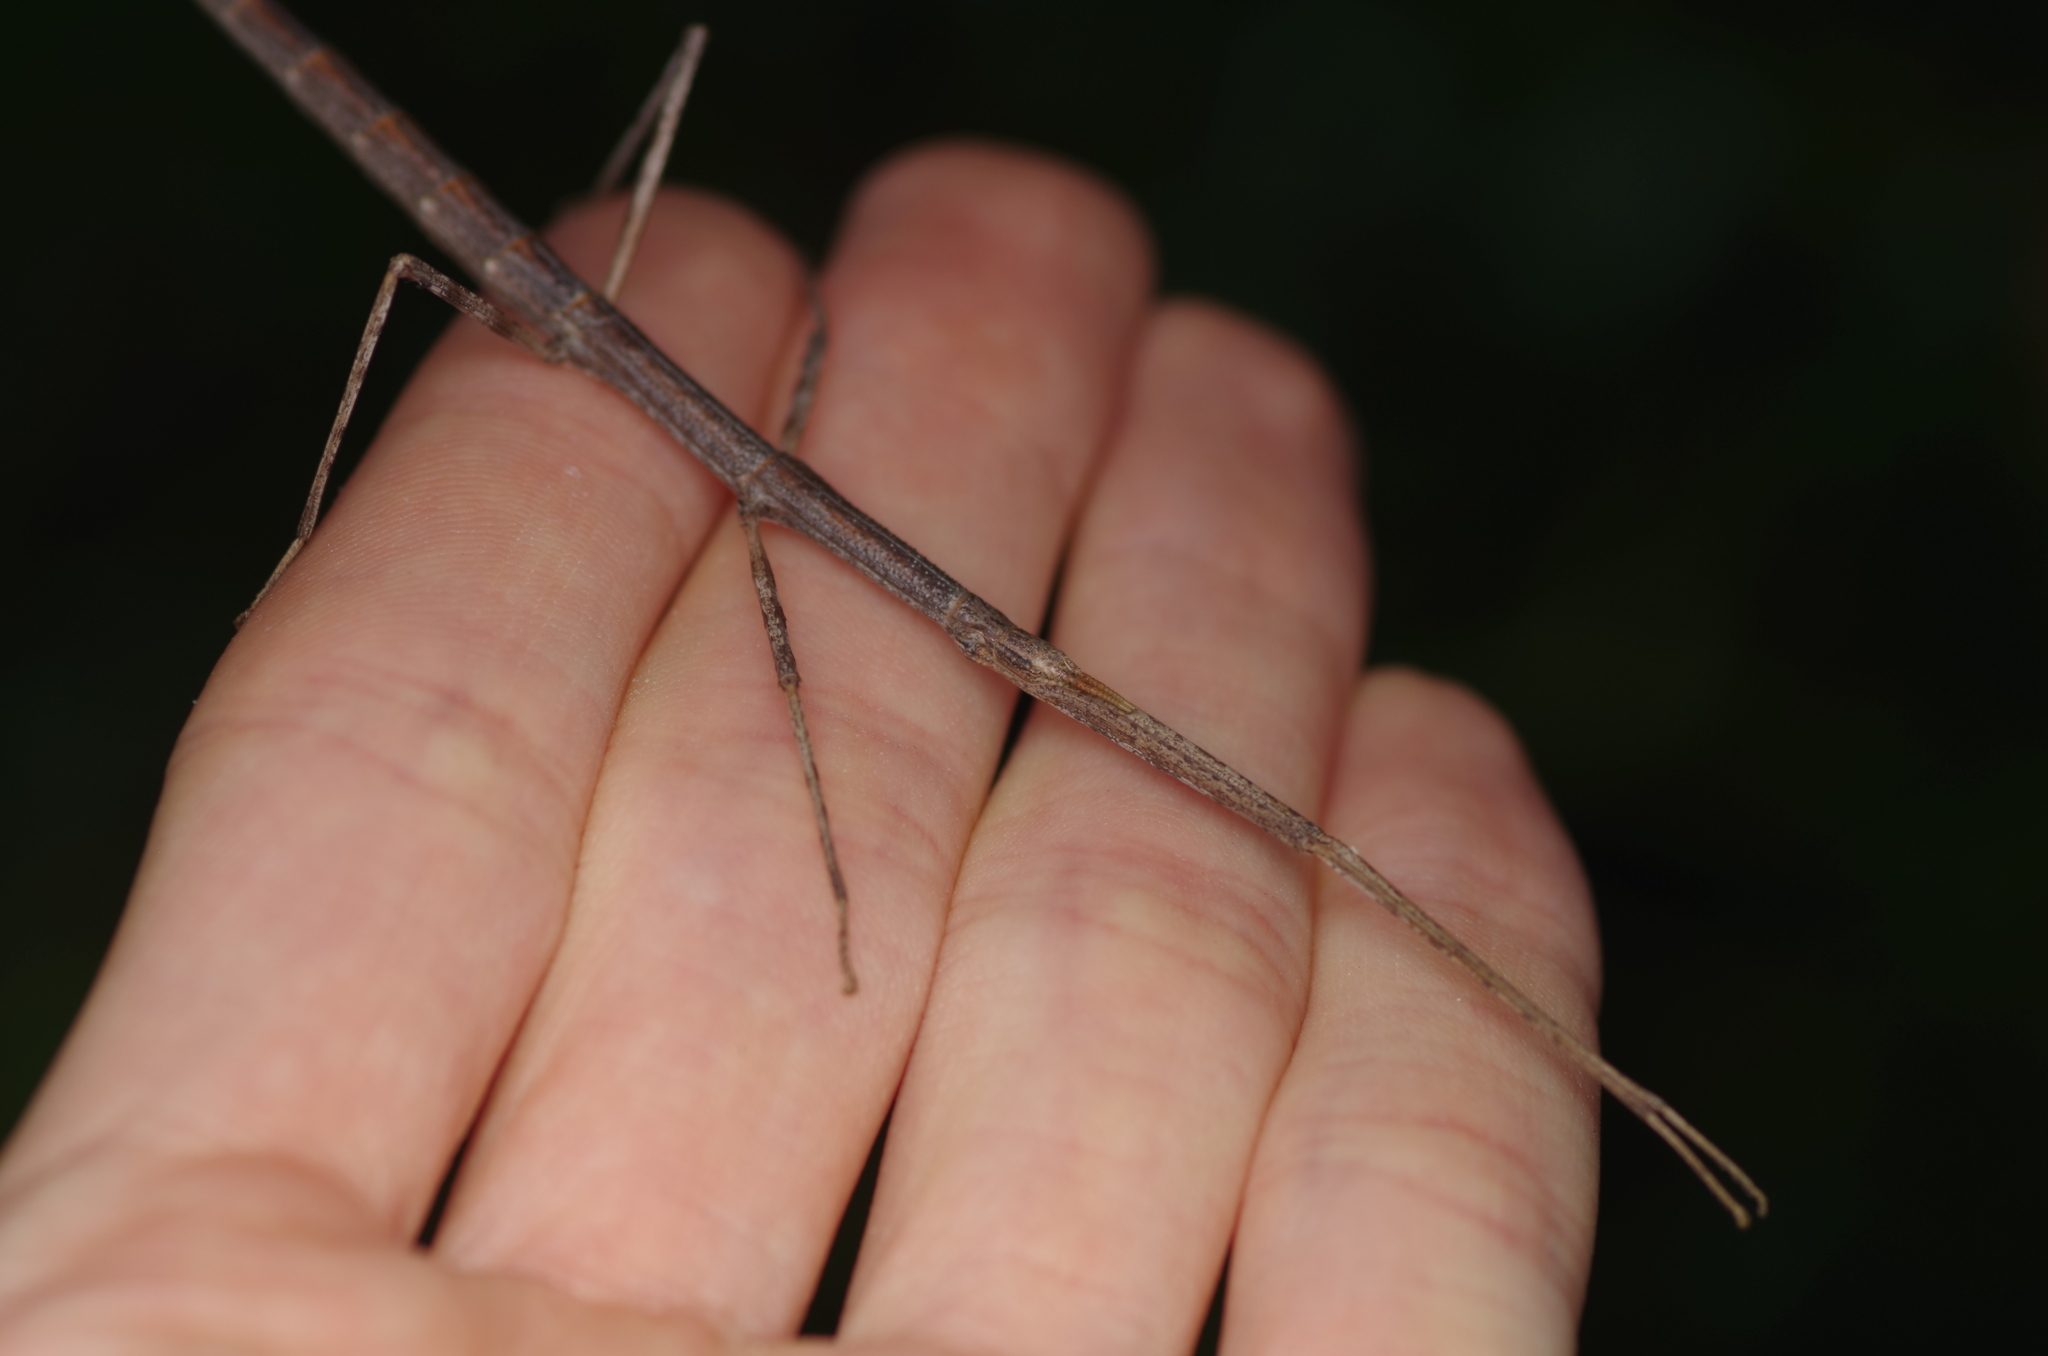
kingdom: Animalia
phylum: Arthropoda
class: Insecta
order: Phasmida
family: Bacillidae
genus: Clonopsis
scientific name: Clonopsis gallica
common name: French stick insect
